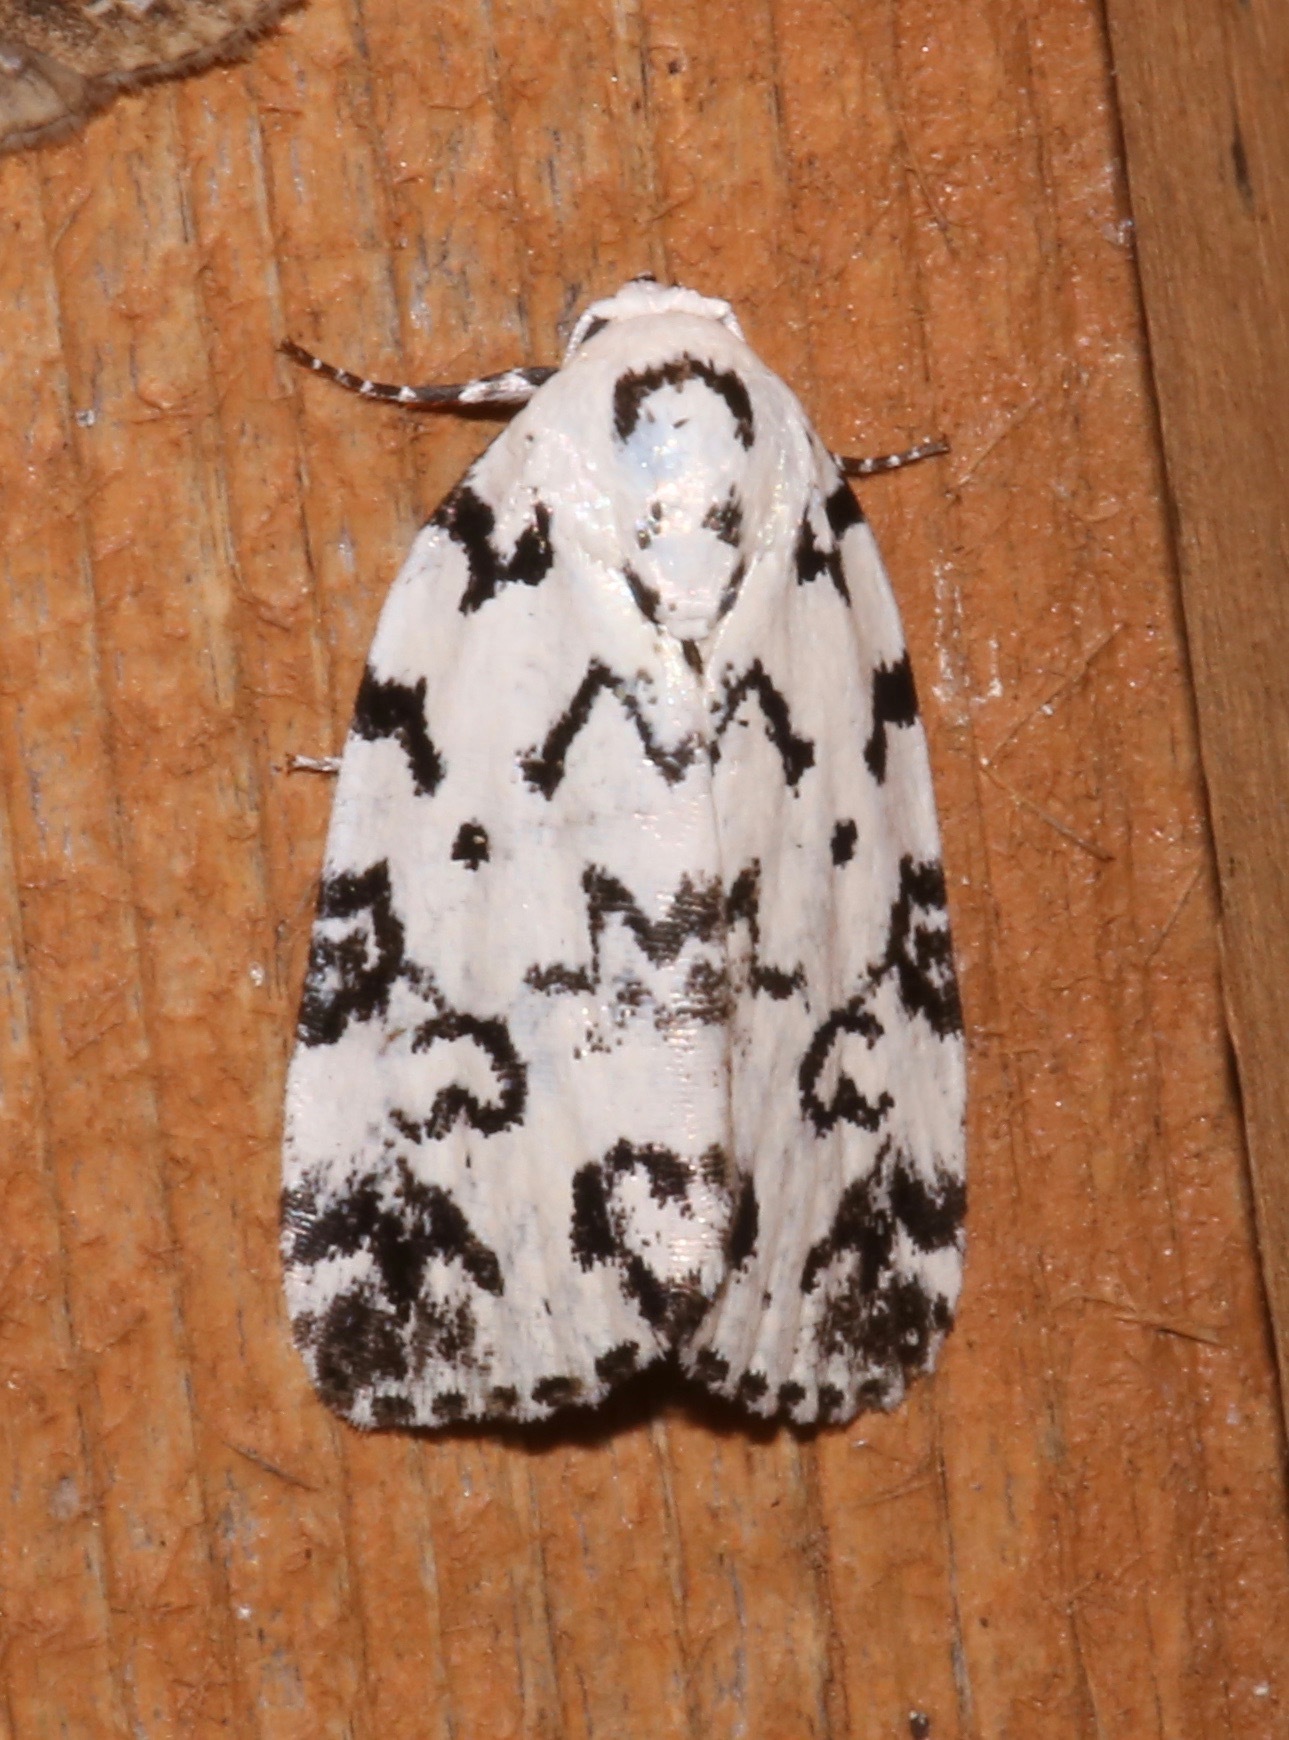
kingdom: Animalia
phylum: Arthropoda
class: Insecta
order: Lepidoptera
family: Noctuidae
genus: Polygrammate
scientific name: Polygrammate hebraeicum
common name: Hebrew moth
